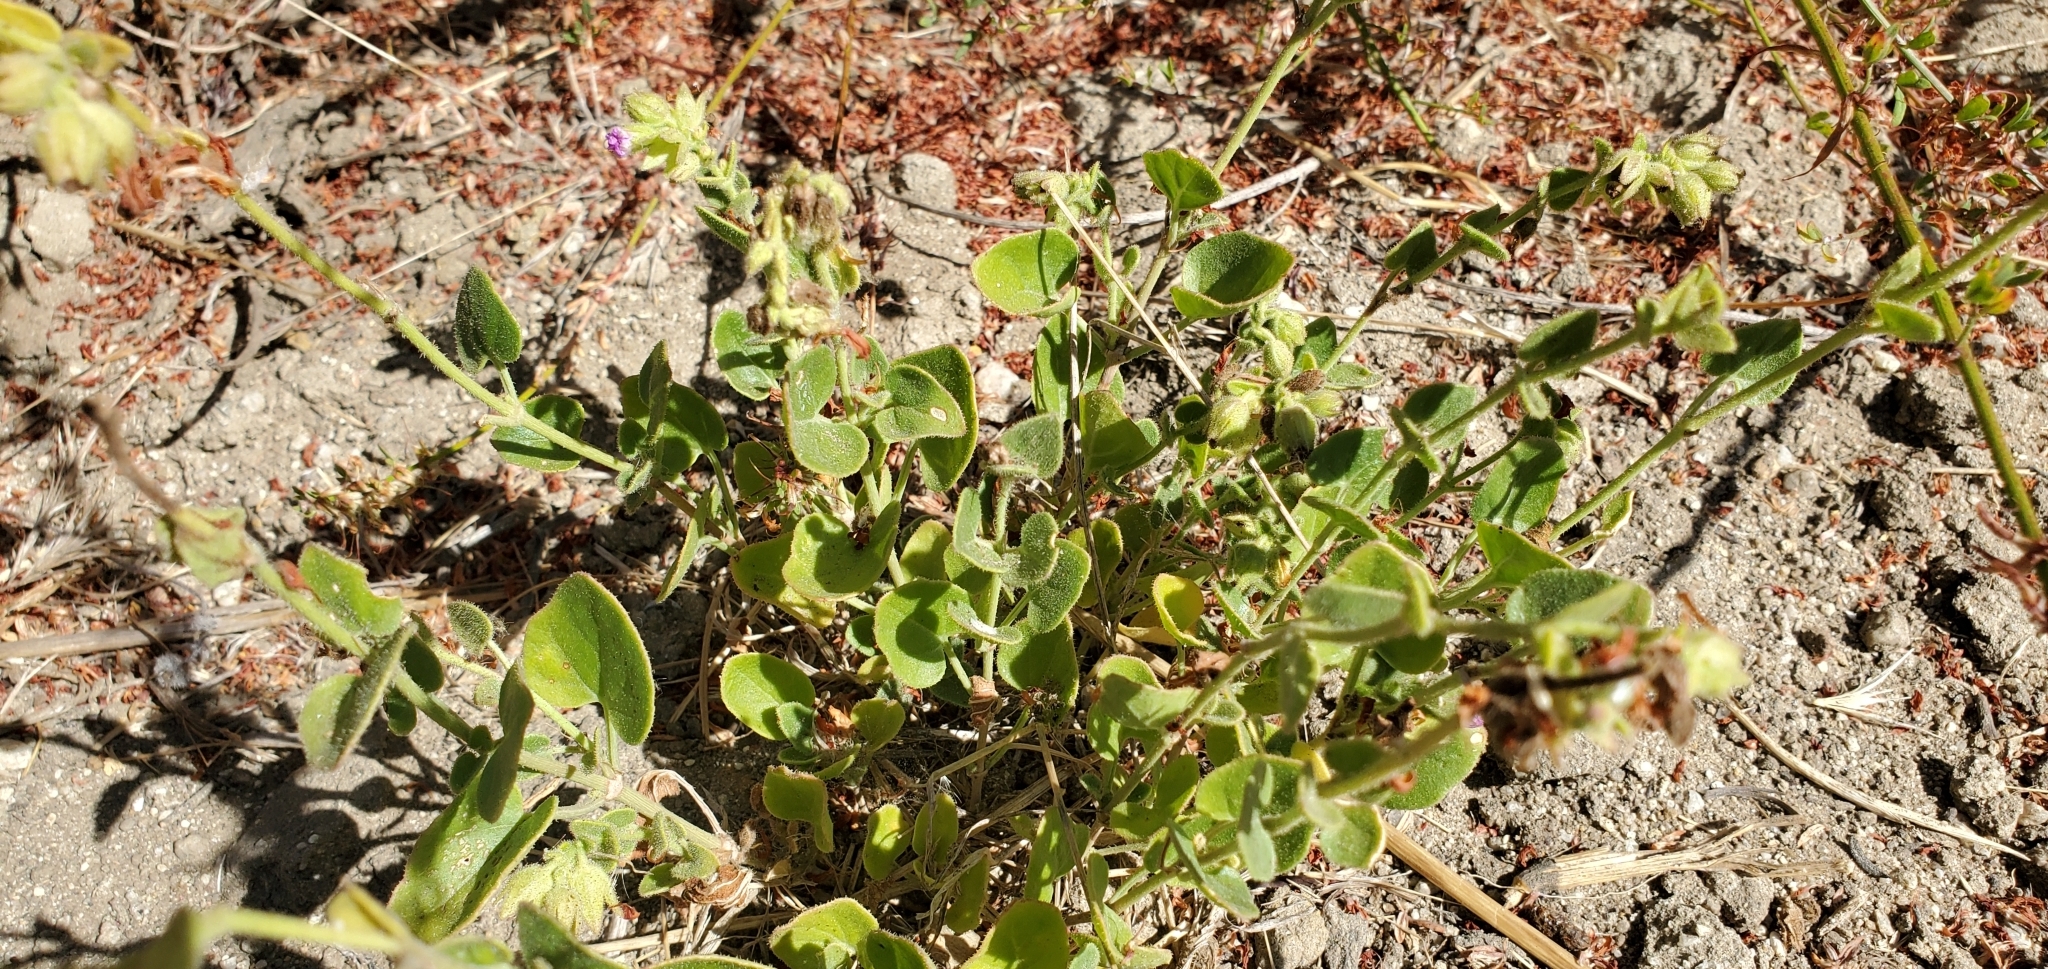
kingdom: Plantae
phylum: Tracheophyta
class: Magnoliopsida
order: Caryophyllales
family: Nyctaginaceae
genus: Mirabilis
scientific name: Mirabilis laevis
